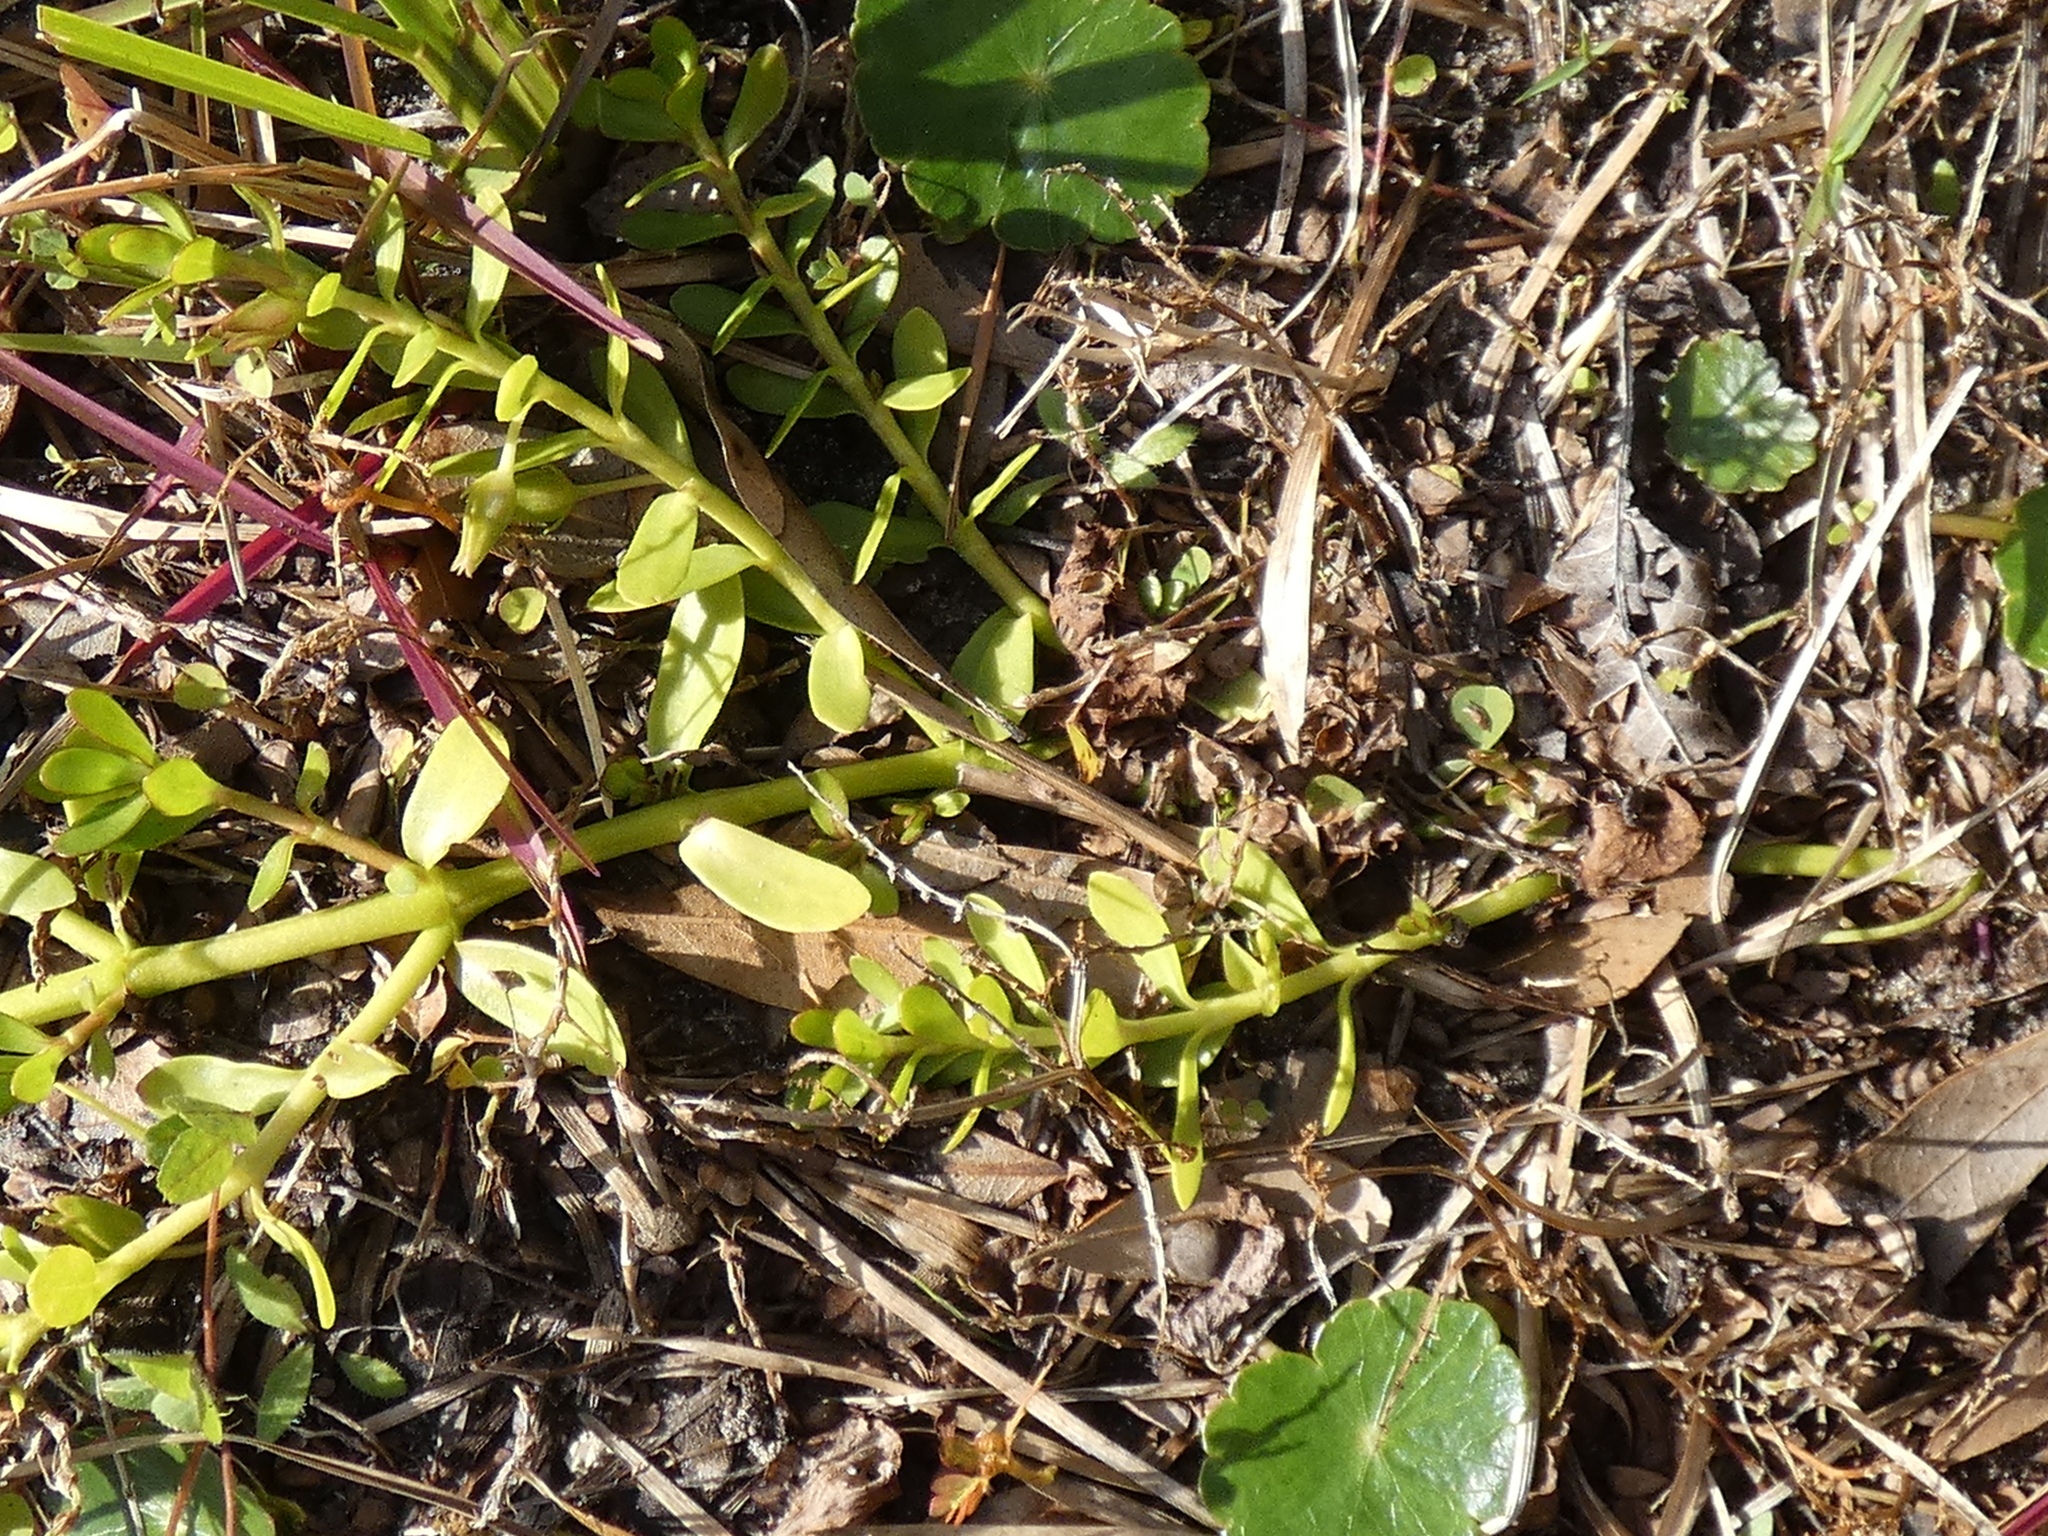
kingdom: Plantae
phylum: Tracheophyta
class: Magnoliopsida
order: Lamiales
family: Plantaginaceae
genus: Bacopa
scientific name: Bacopa monnieri
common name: Indian-pennywort
